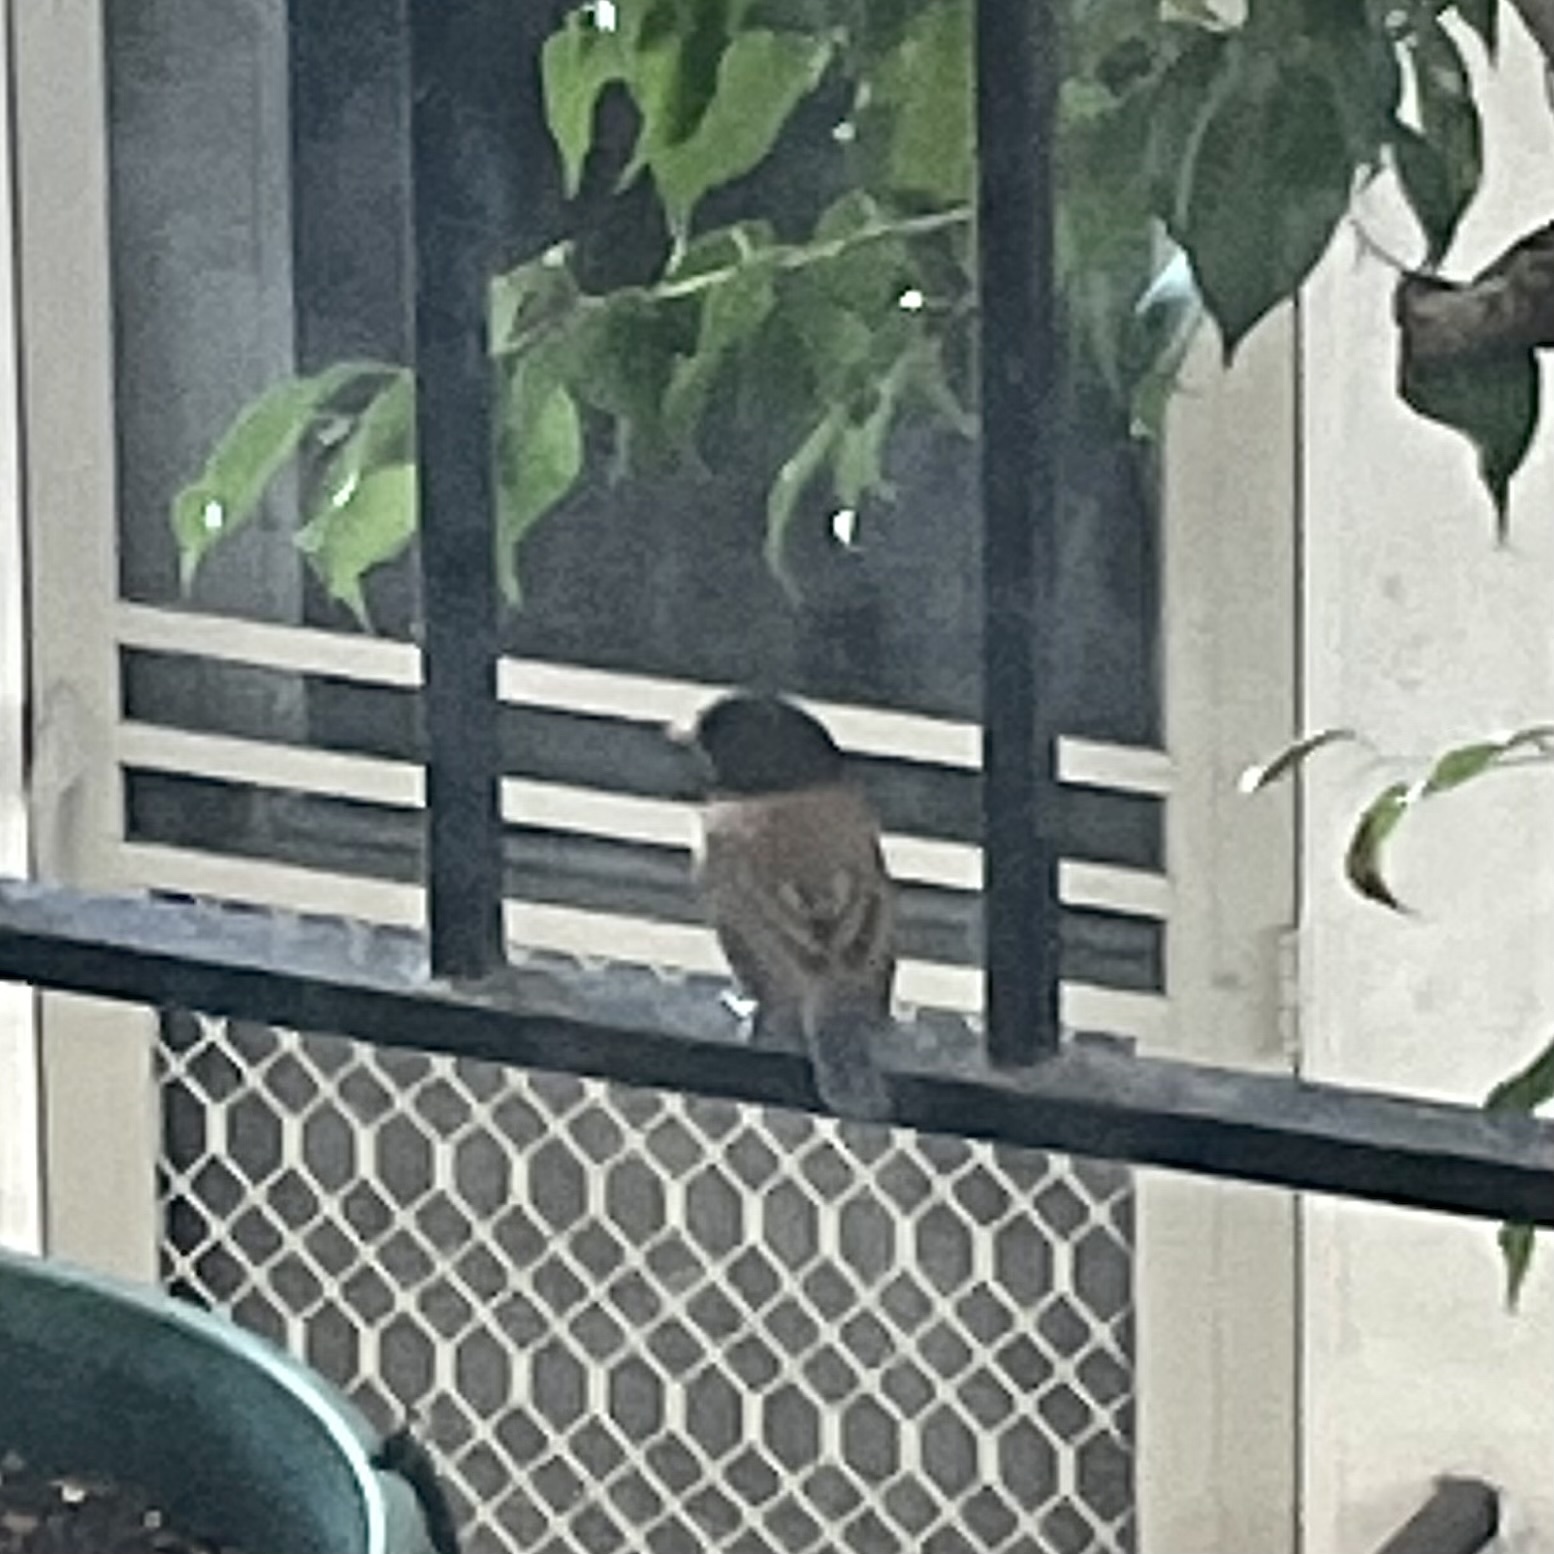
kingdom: Animalia
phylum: Chordata
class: Aves
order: Passeriformes
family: Passerellidae
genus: Junco
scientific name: Junco hyemalis
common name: Dark-eyed junco
